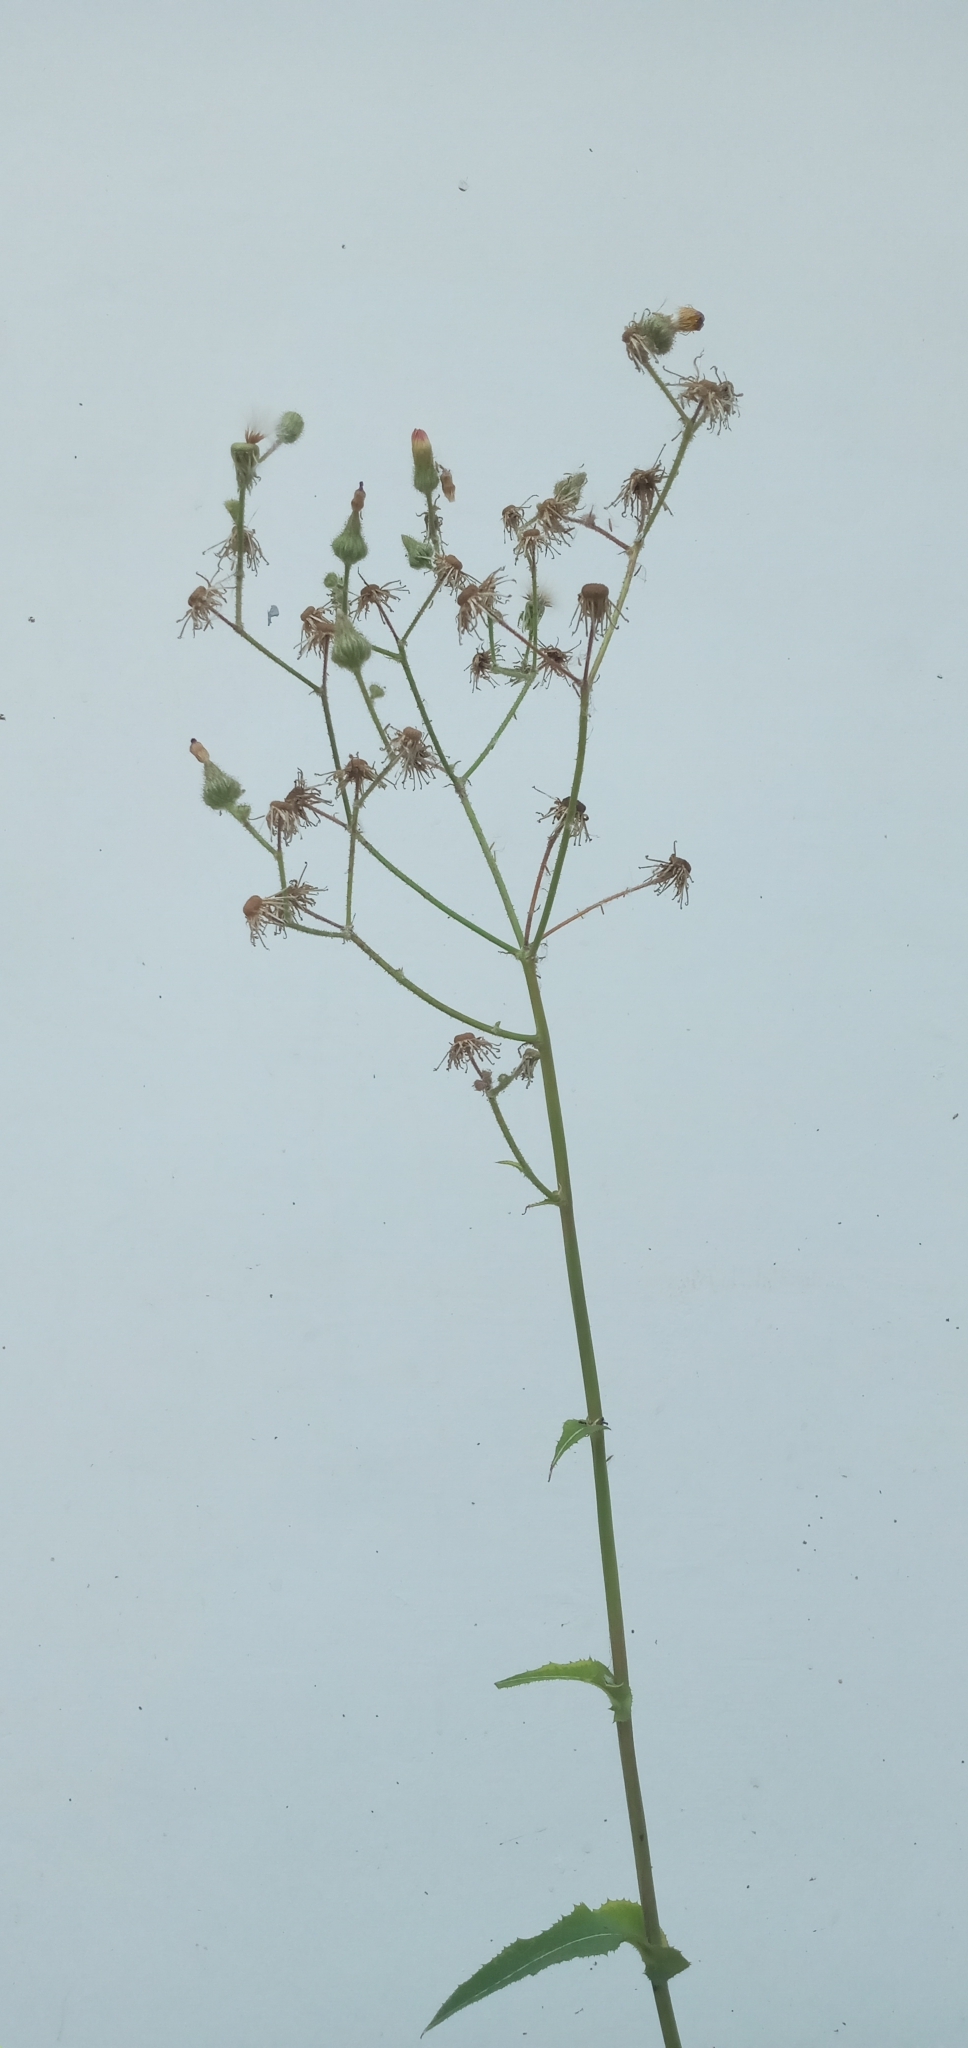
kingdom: Plantae
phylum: Tracheophyta
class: Magnoliopsida
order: Asterales
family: Asteraceae
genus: Sonchus
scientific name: Sonchus arvensis
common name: Perennial sow-thistle
